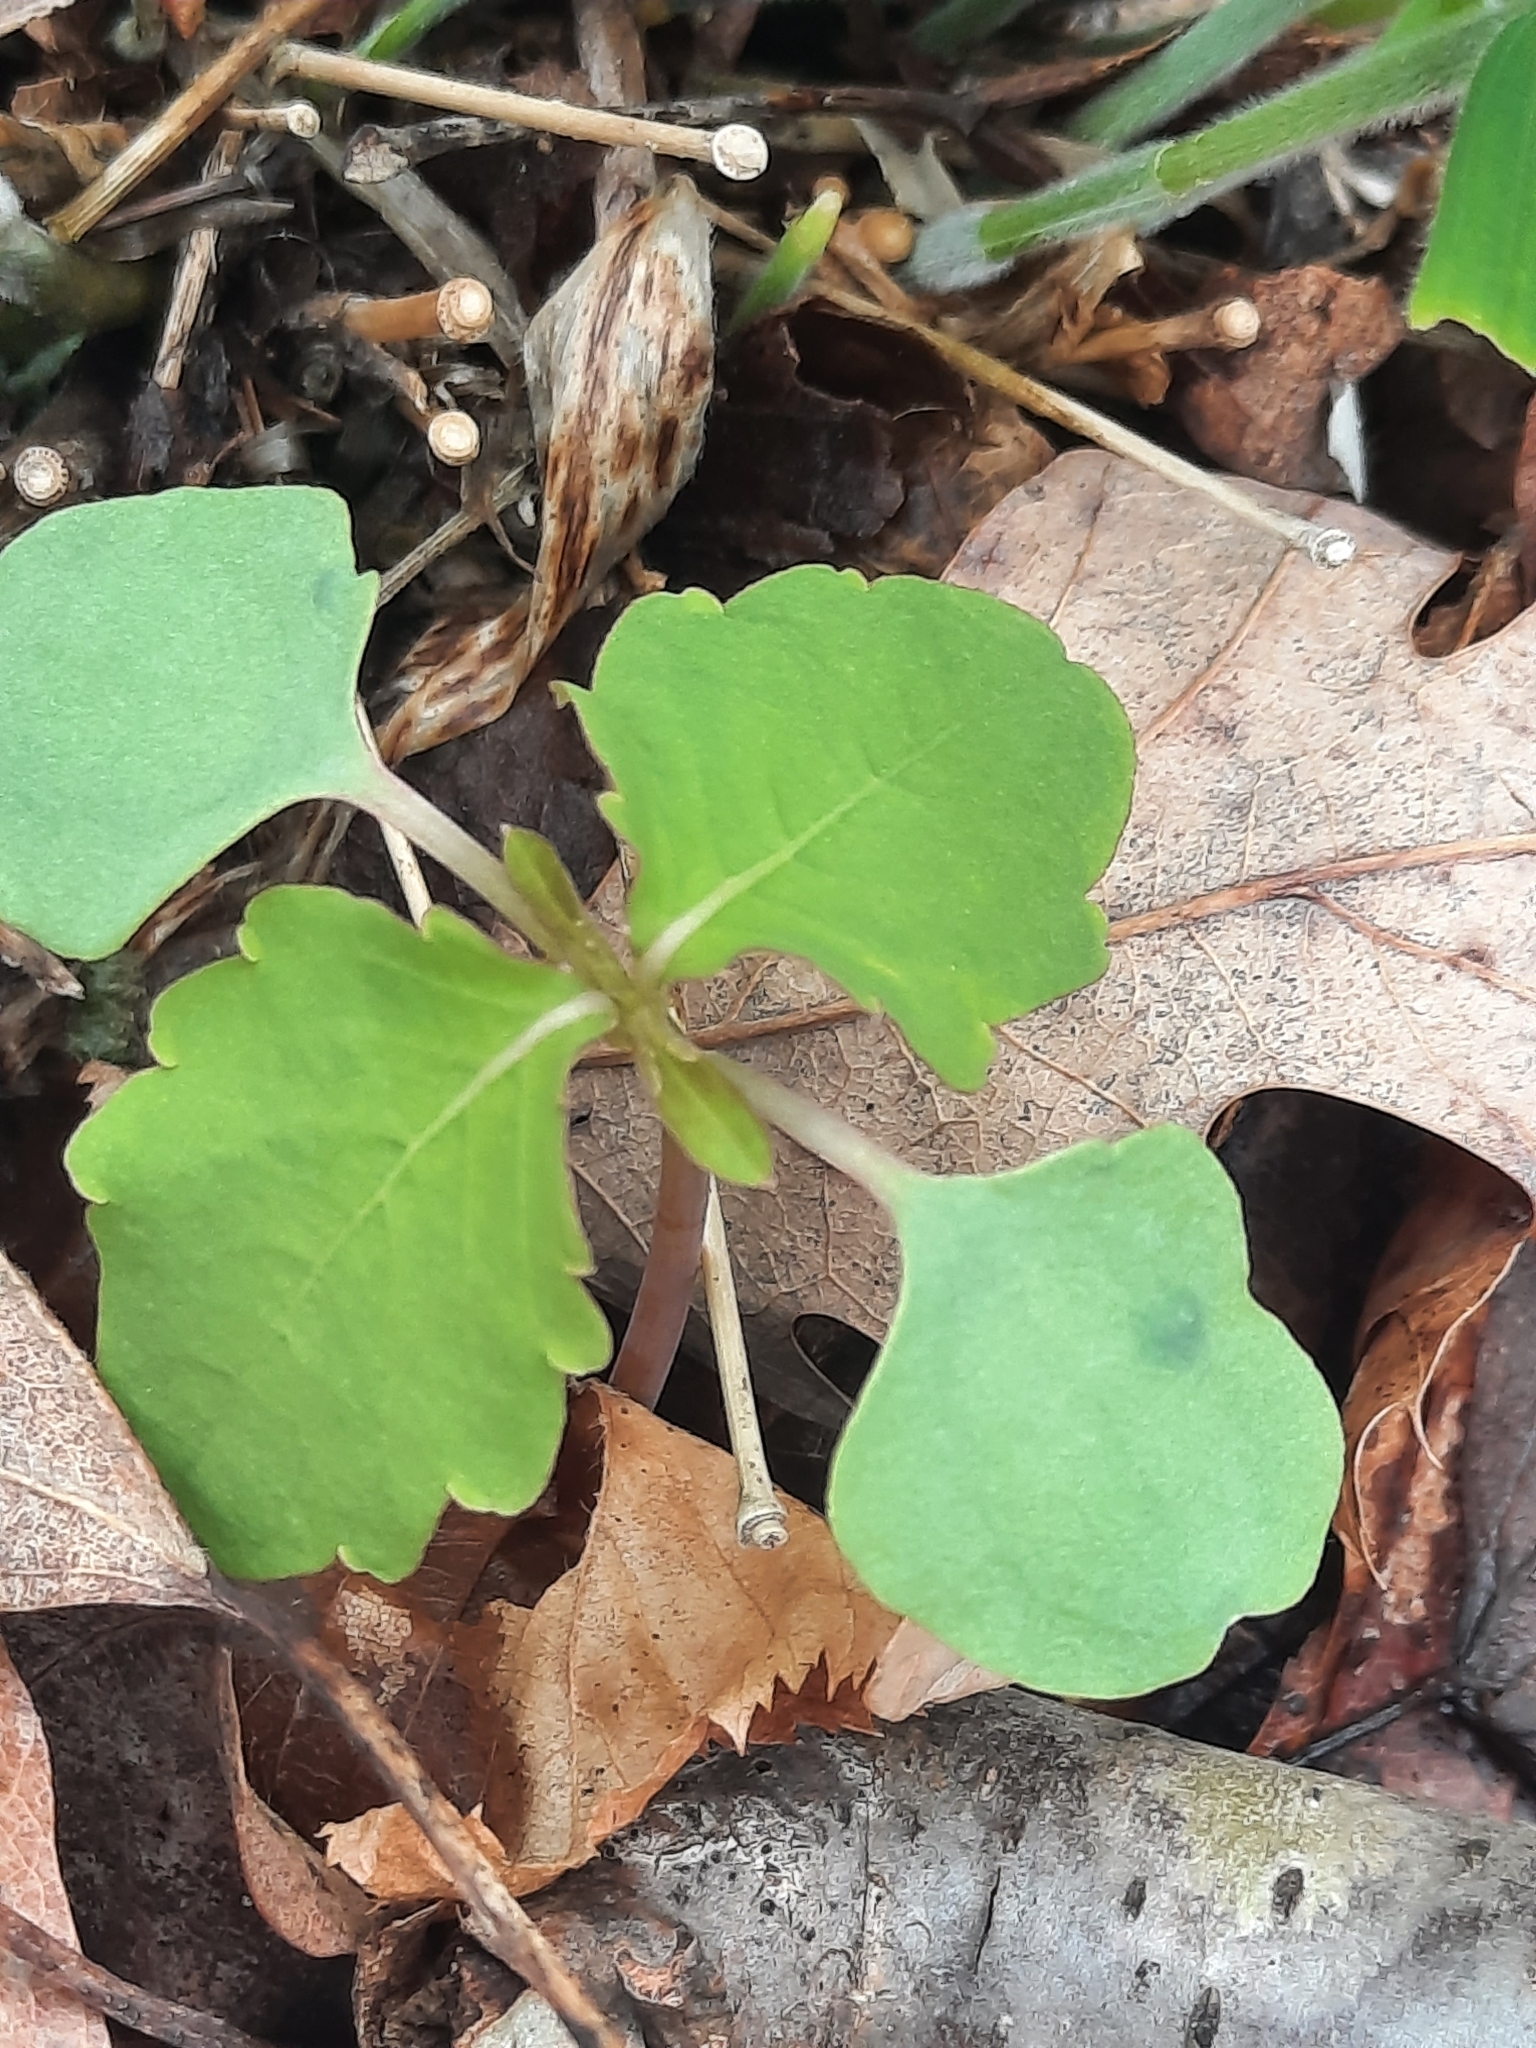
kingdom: Plantae
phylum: Tracheophyta
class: Magnoliopsida
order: Ericales
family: Balsaminaceae
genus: Impatiens
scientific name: Impatiens
